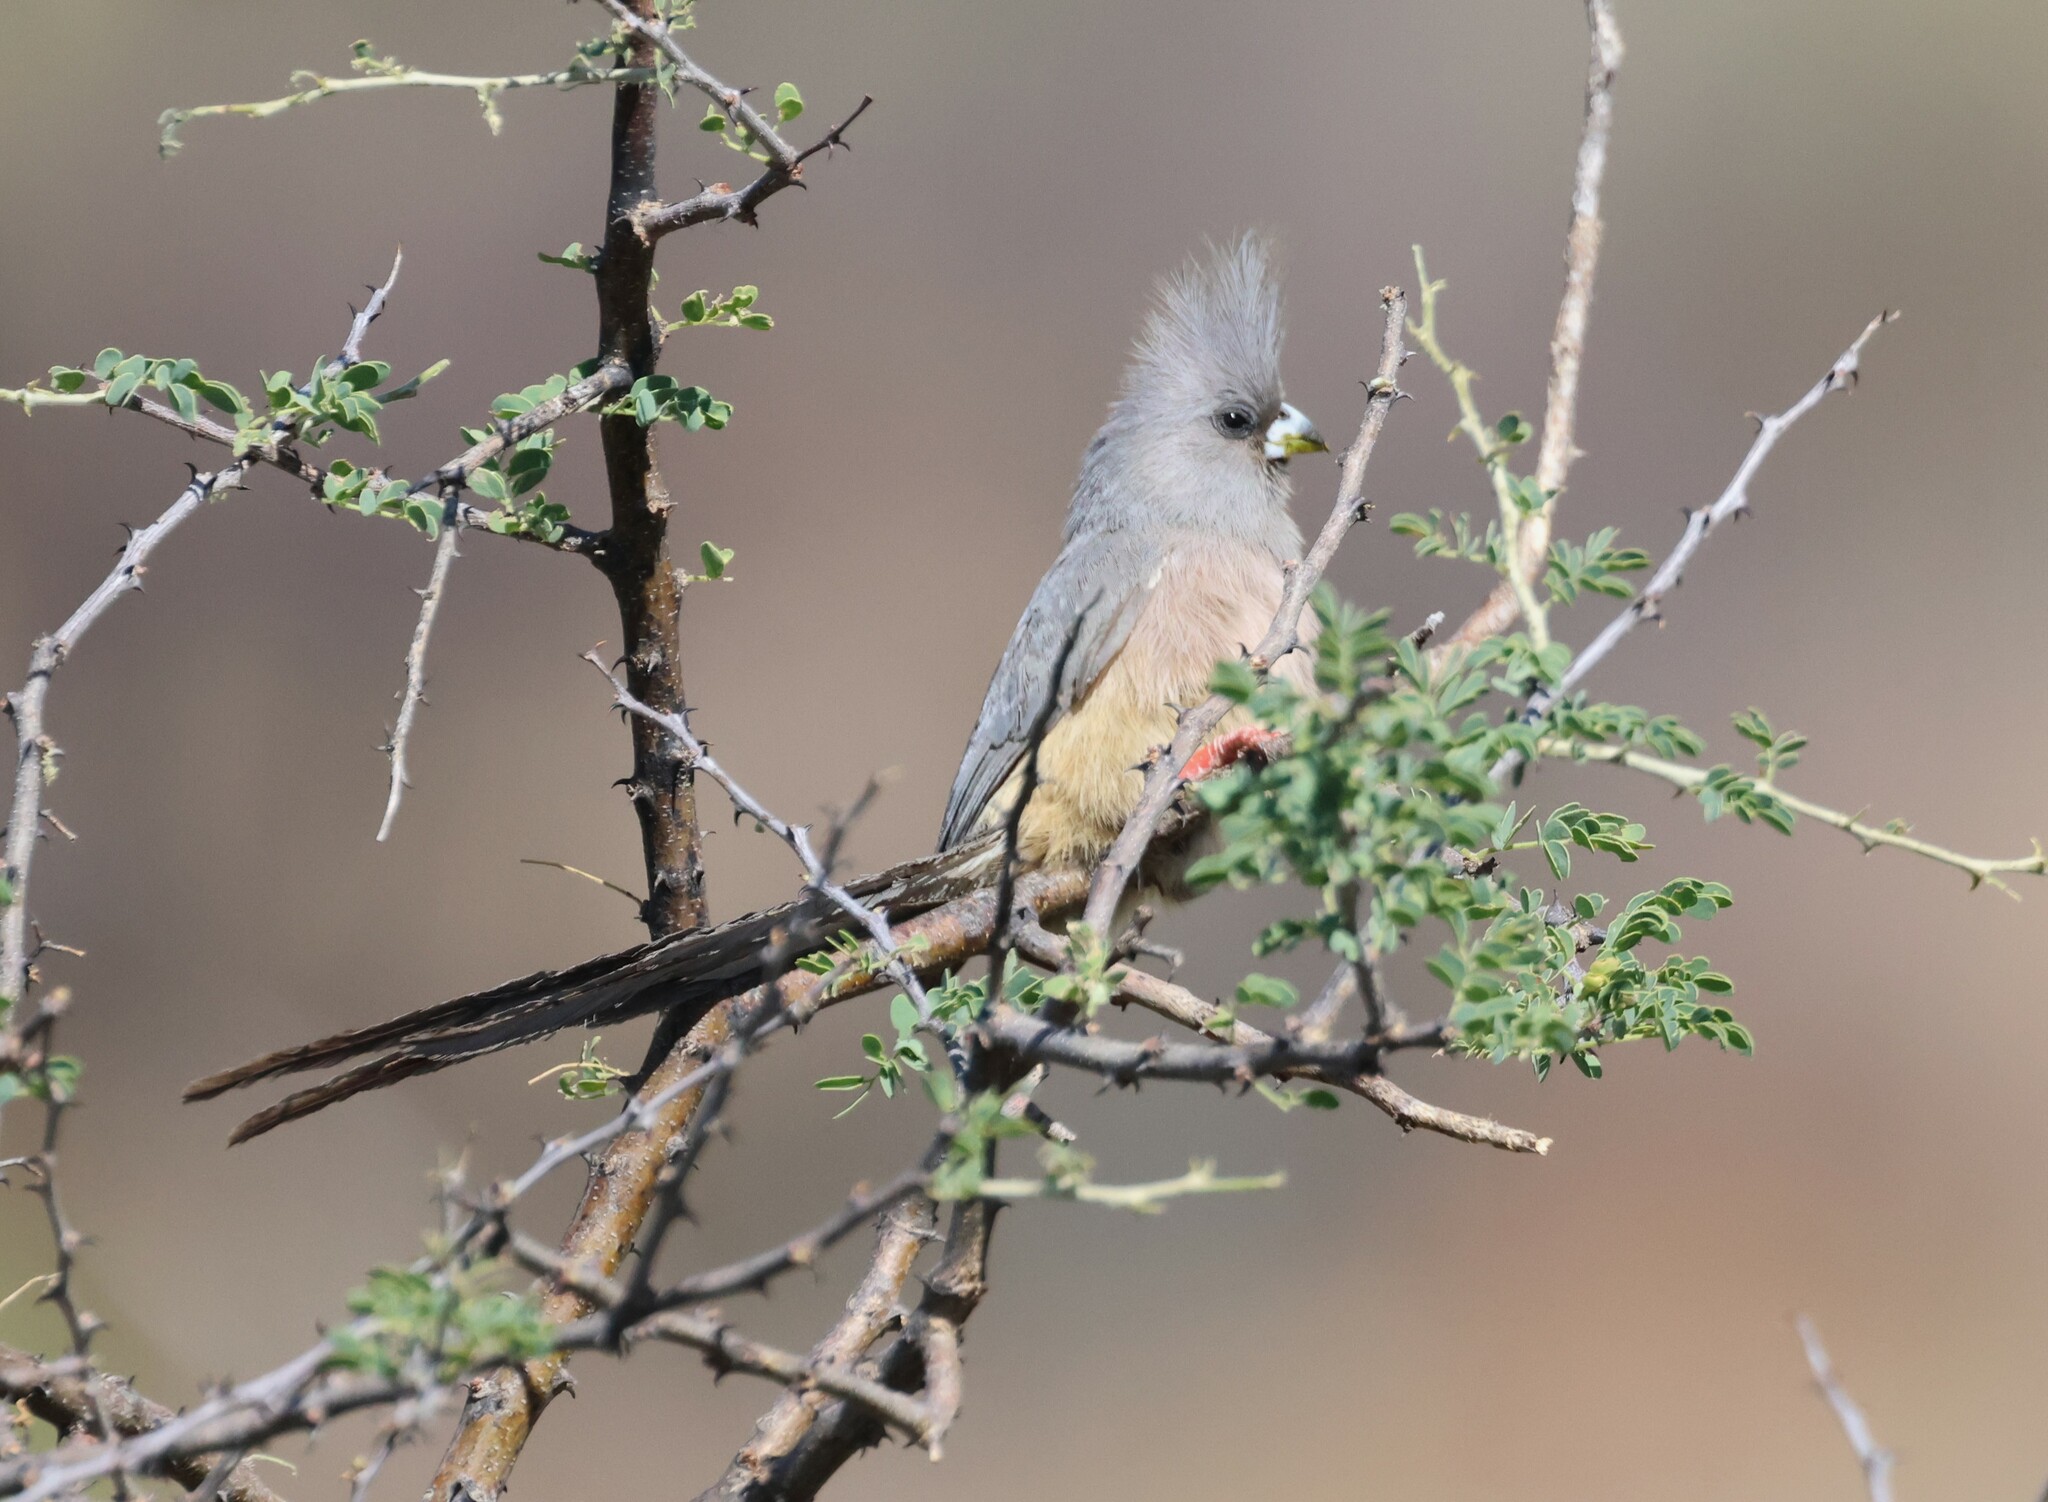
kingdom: Animalia
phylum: Chordata
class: Aves
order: Coliiformes
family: Coliidae
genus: Colius
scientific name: Colius colius
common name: White-backed mousebird
